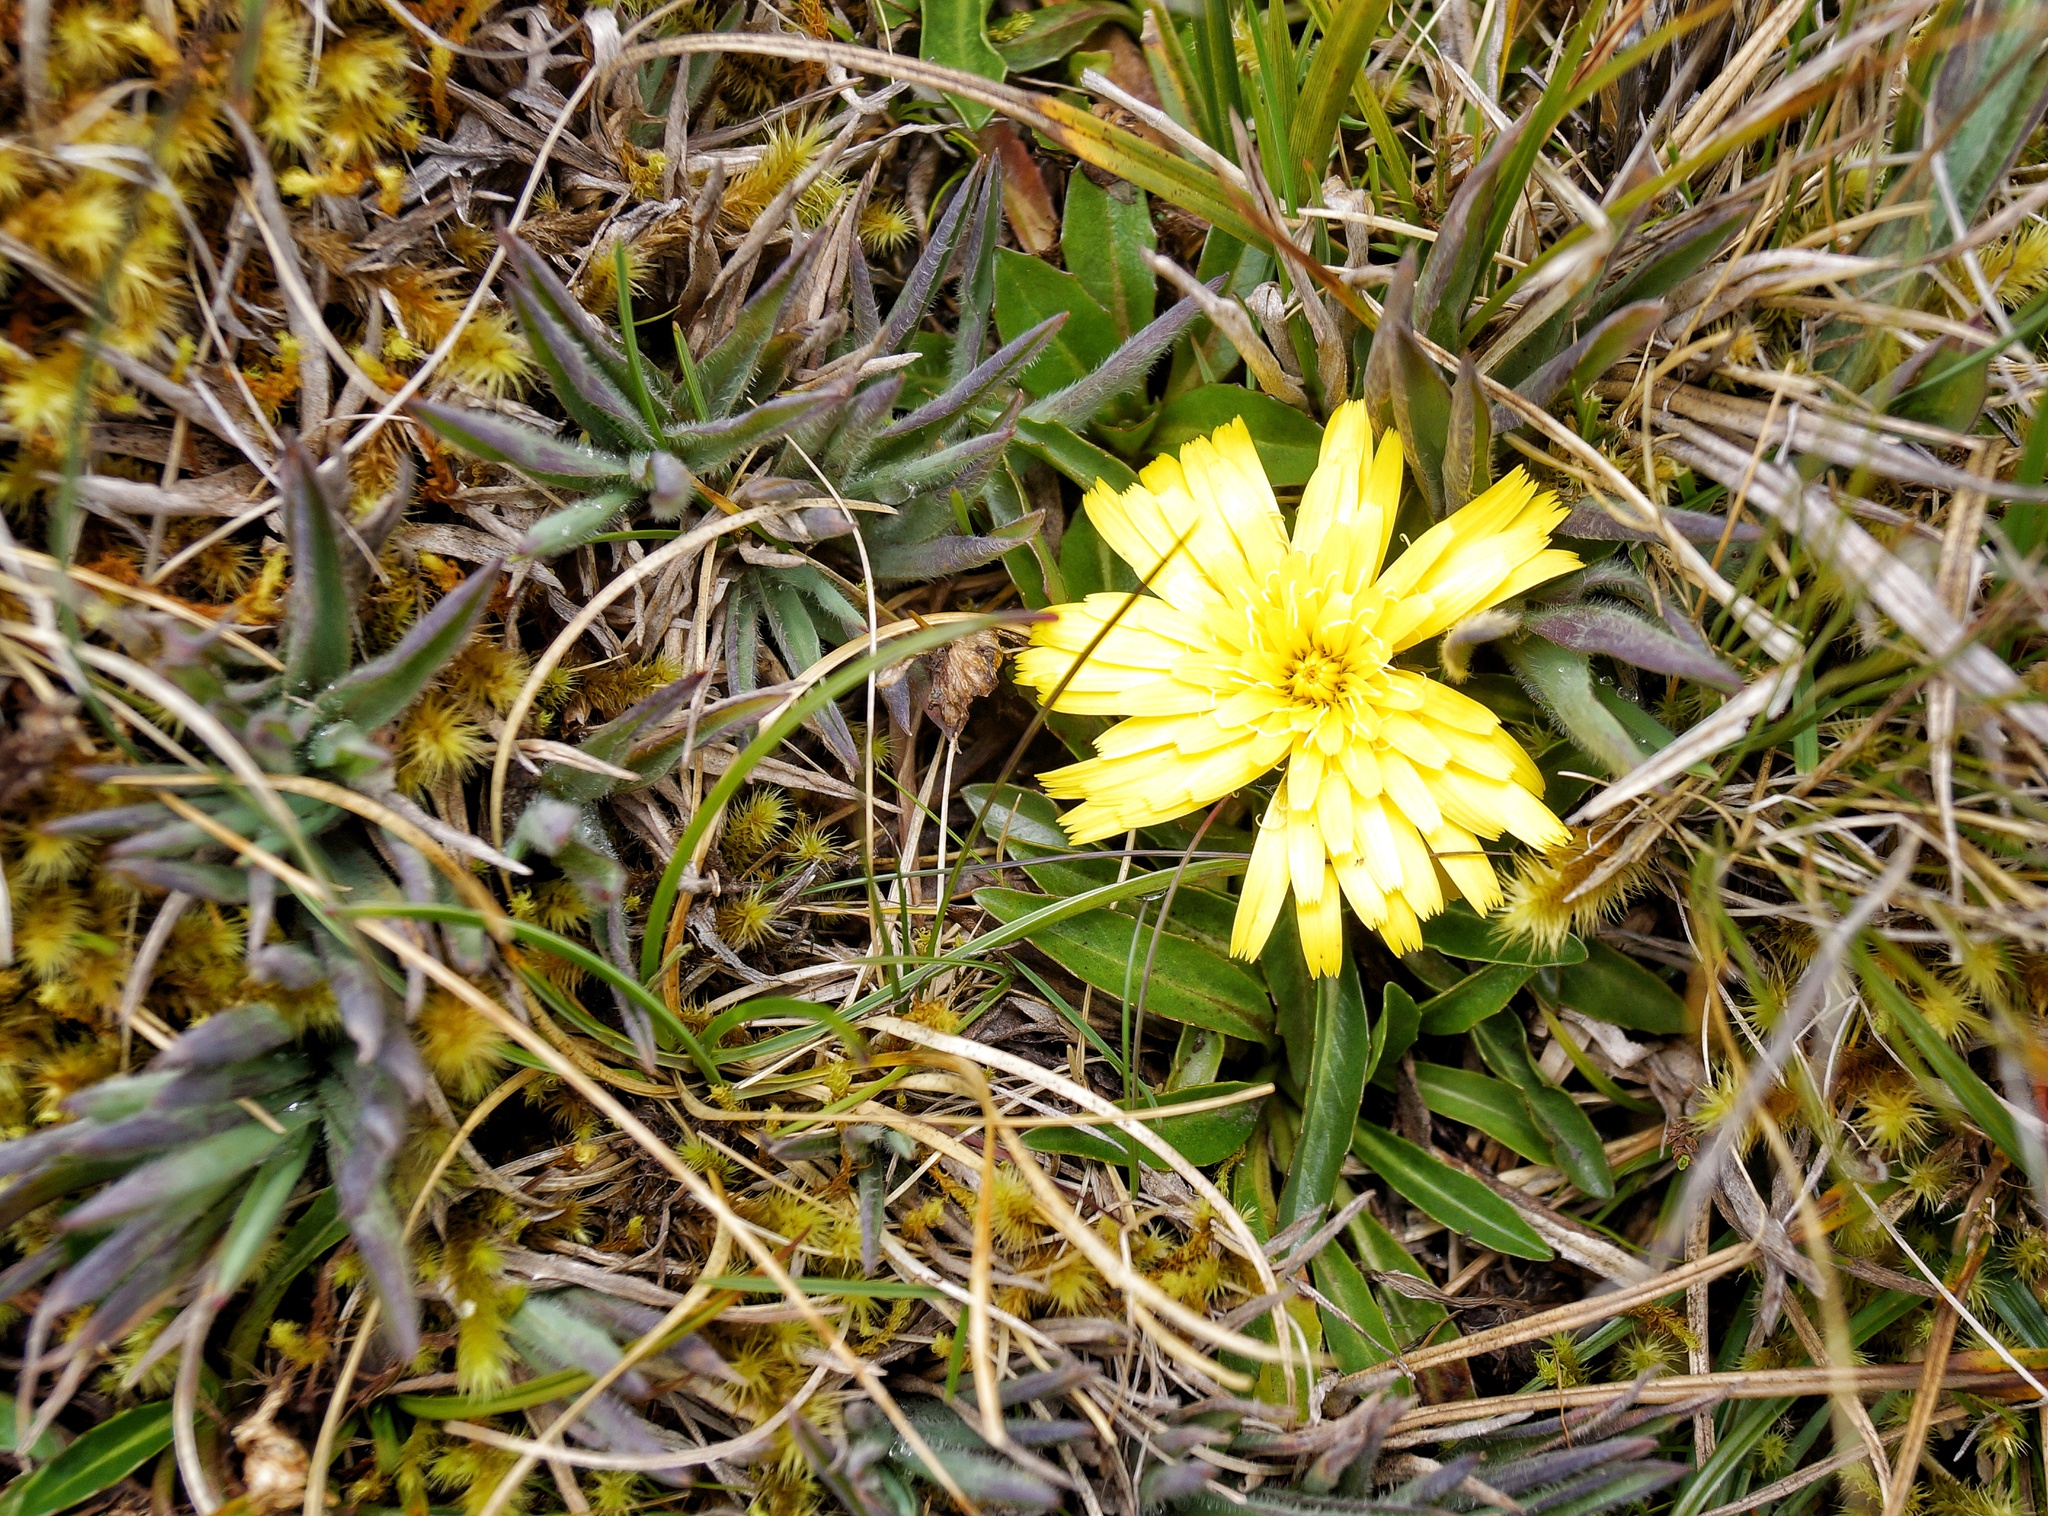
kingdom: Plantae
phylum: Tracheophyta
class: Magnoliopsida
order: Asterales
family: Asteraceae
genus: Hypochaeris
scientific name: Hypochaeris sessiliflora
